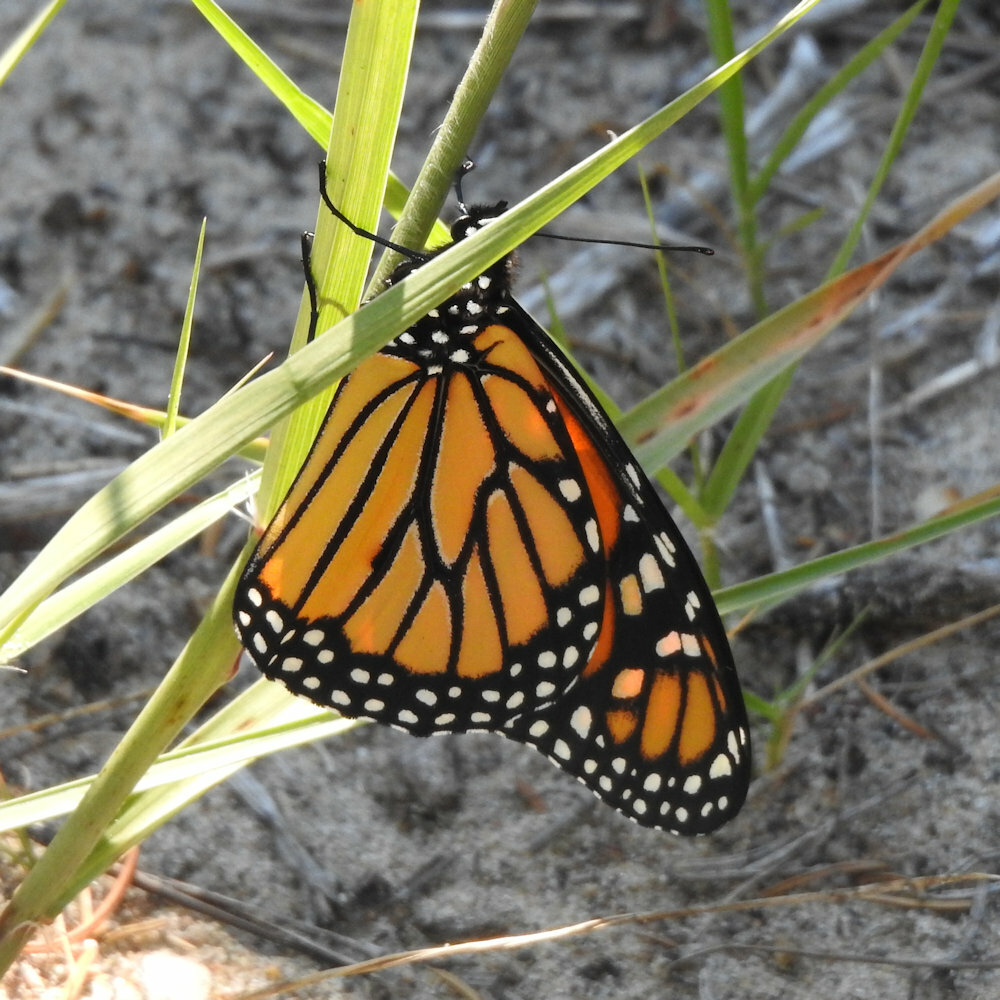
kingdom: Animalia
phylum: Arthropoda
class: Insecta
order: Lepidoptera
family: Nymphalidae
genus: Danaus
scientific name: Danaus plexippus
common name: Monarch
